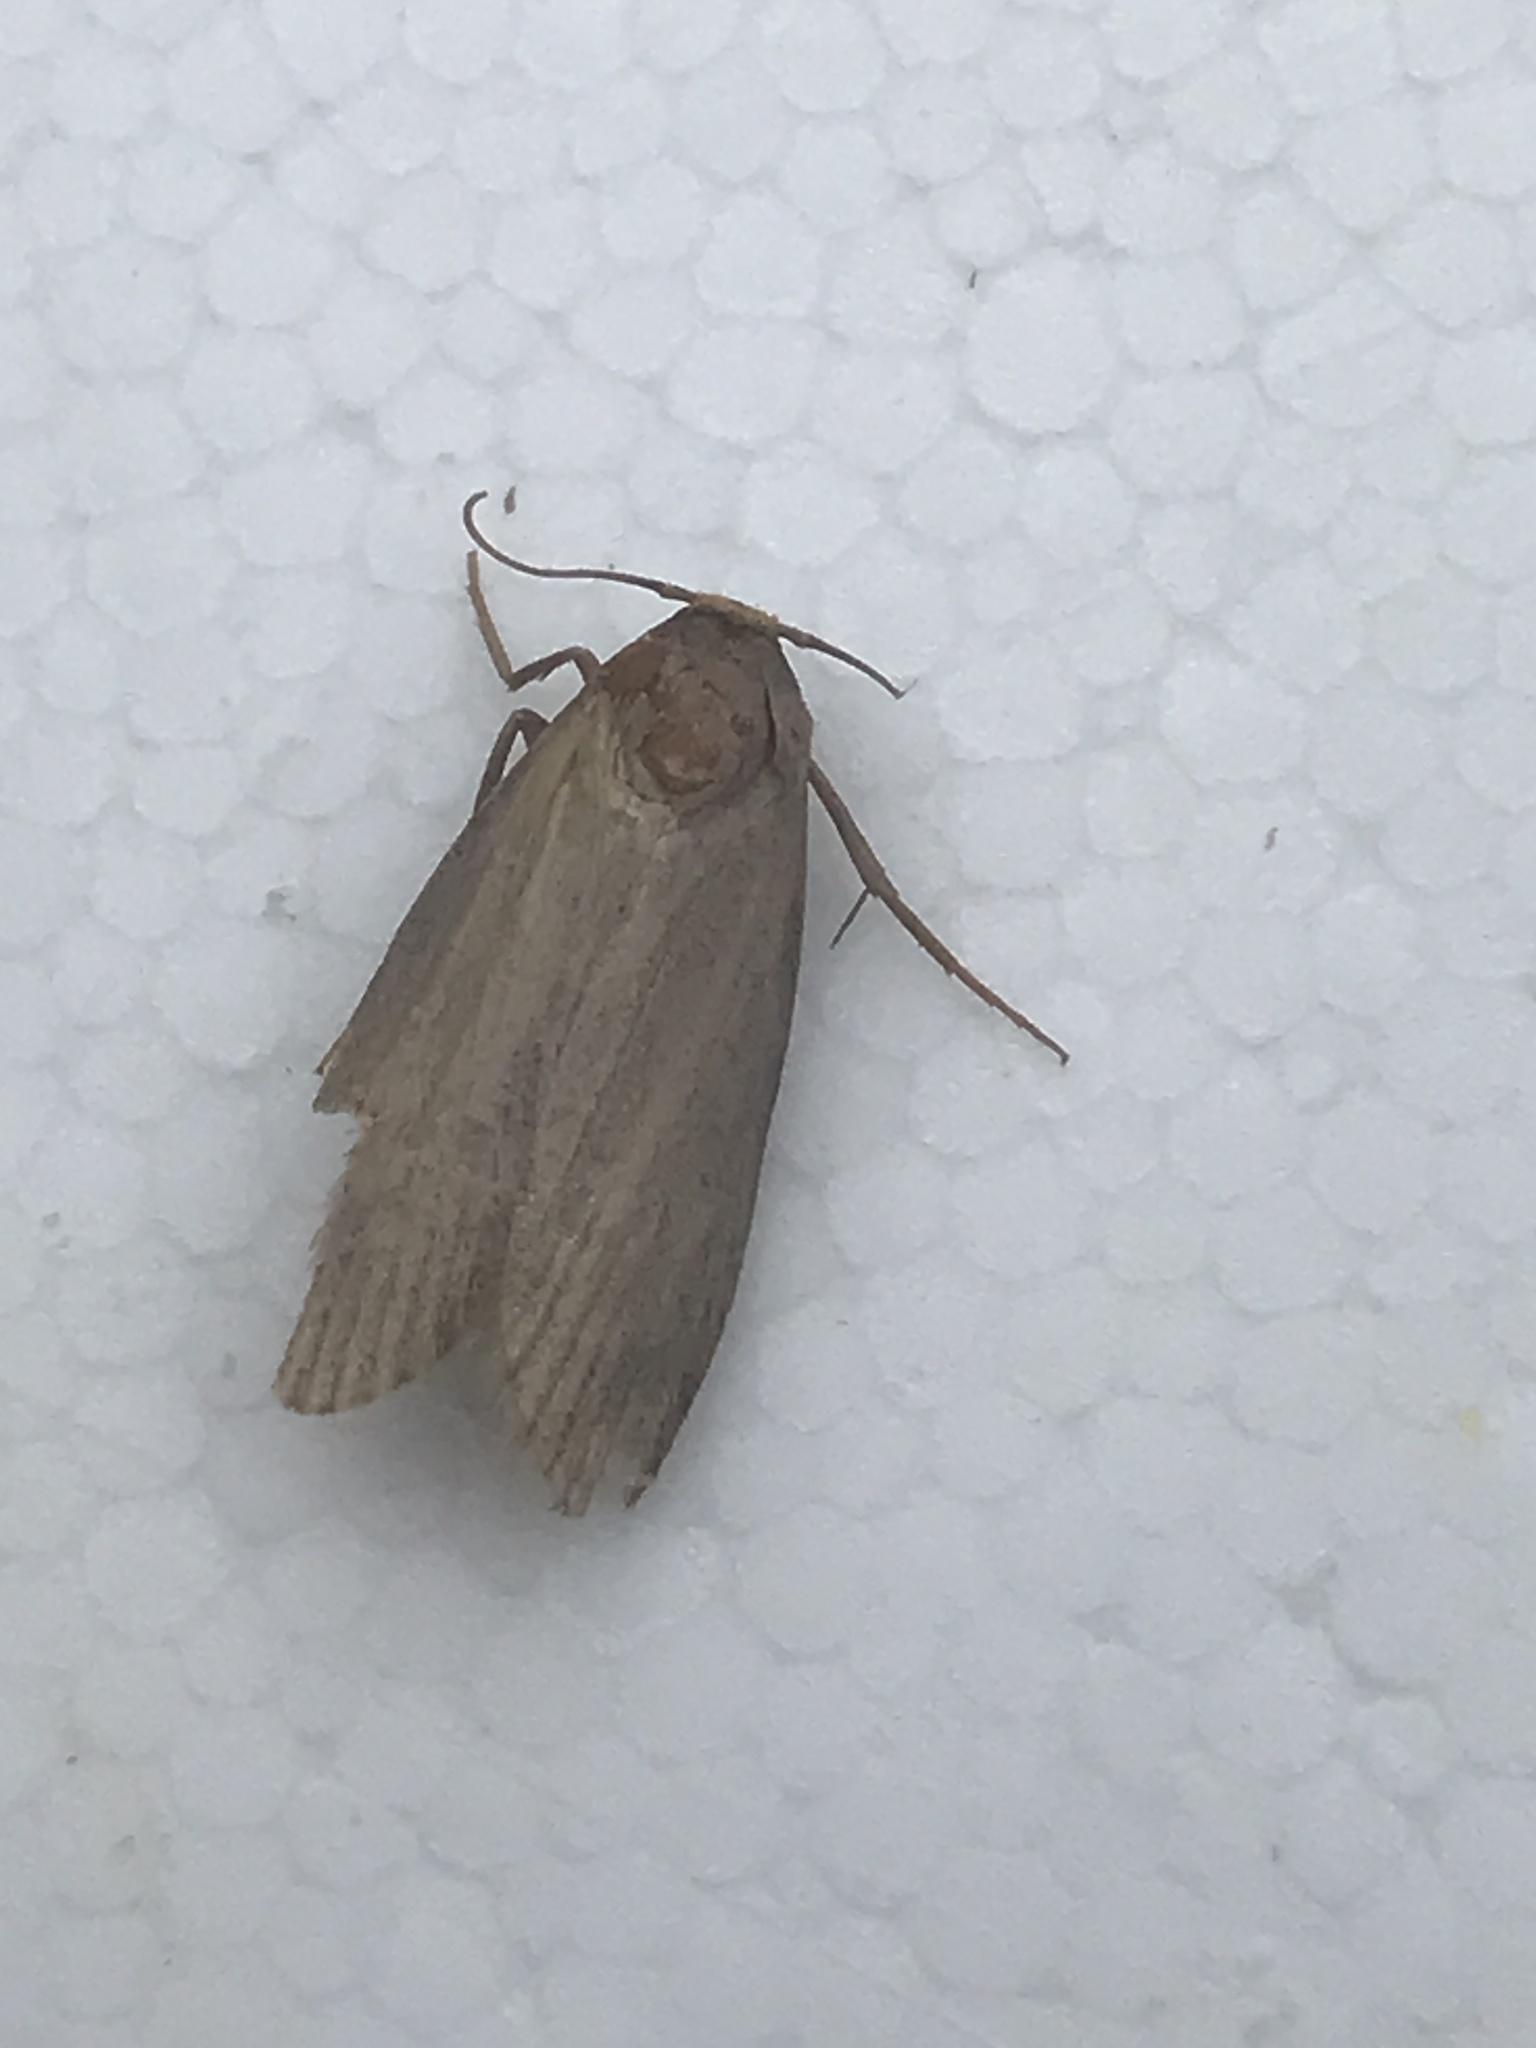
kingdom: Animalia
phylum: Arthropoda
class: Insecta
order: Lepidoptera
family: Pyralidae
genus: Galleria
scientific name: Galleria mellonella
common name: Greater wax moth
